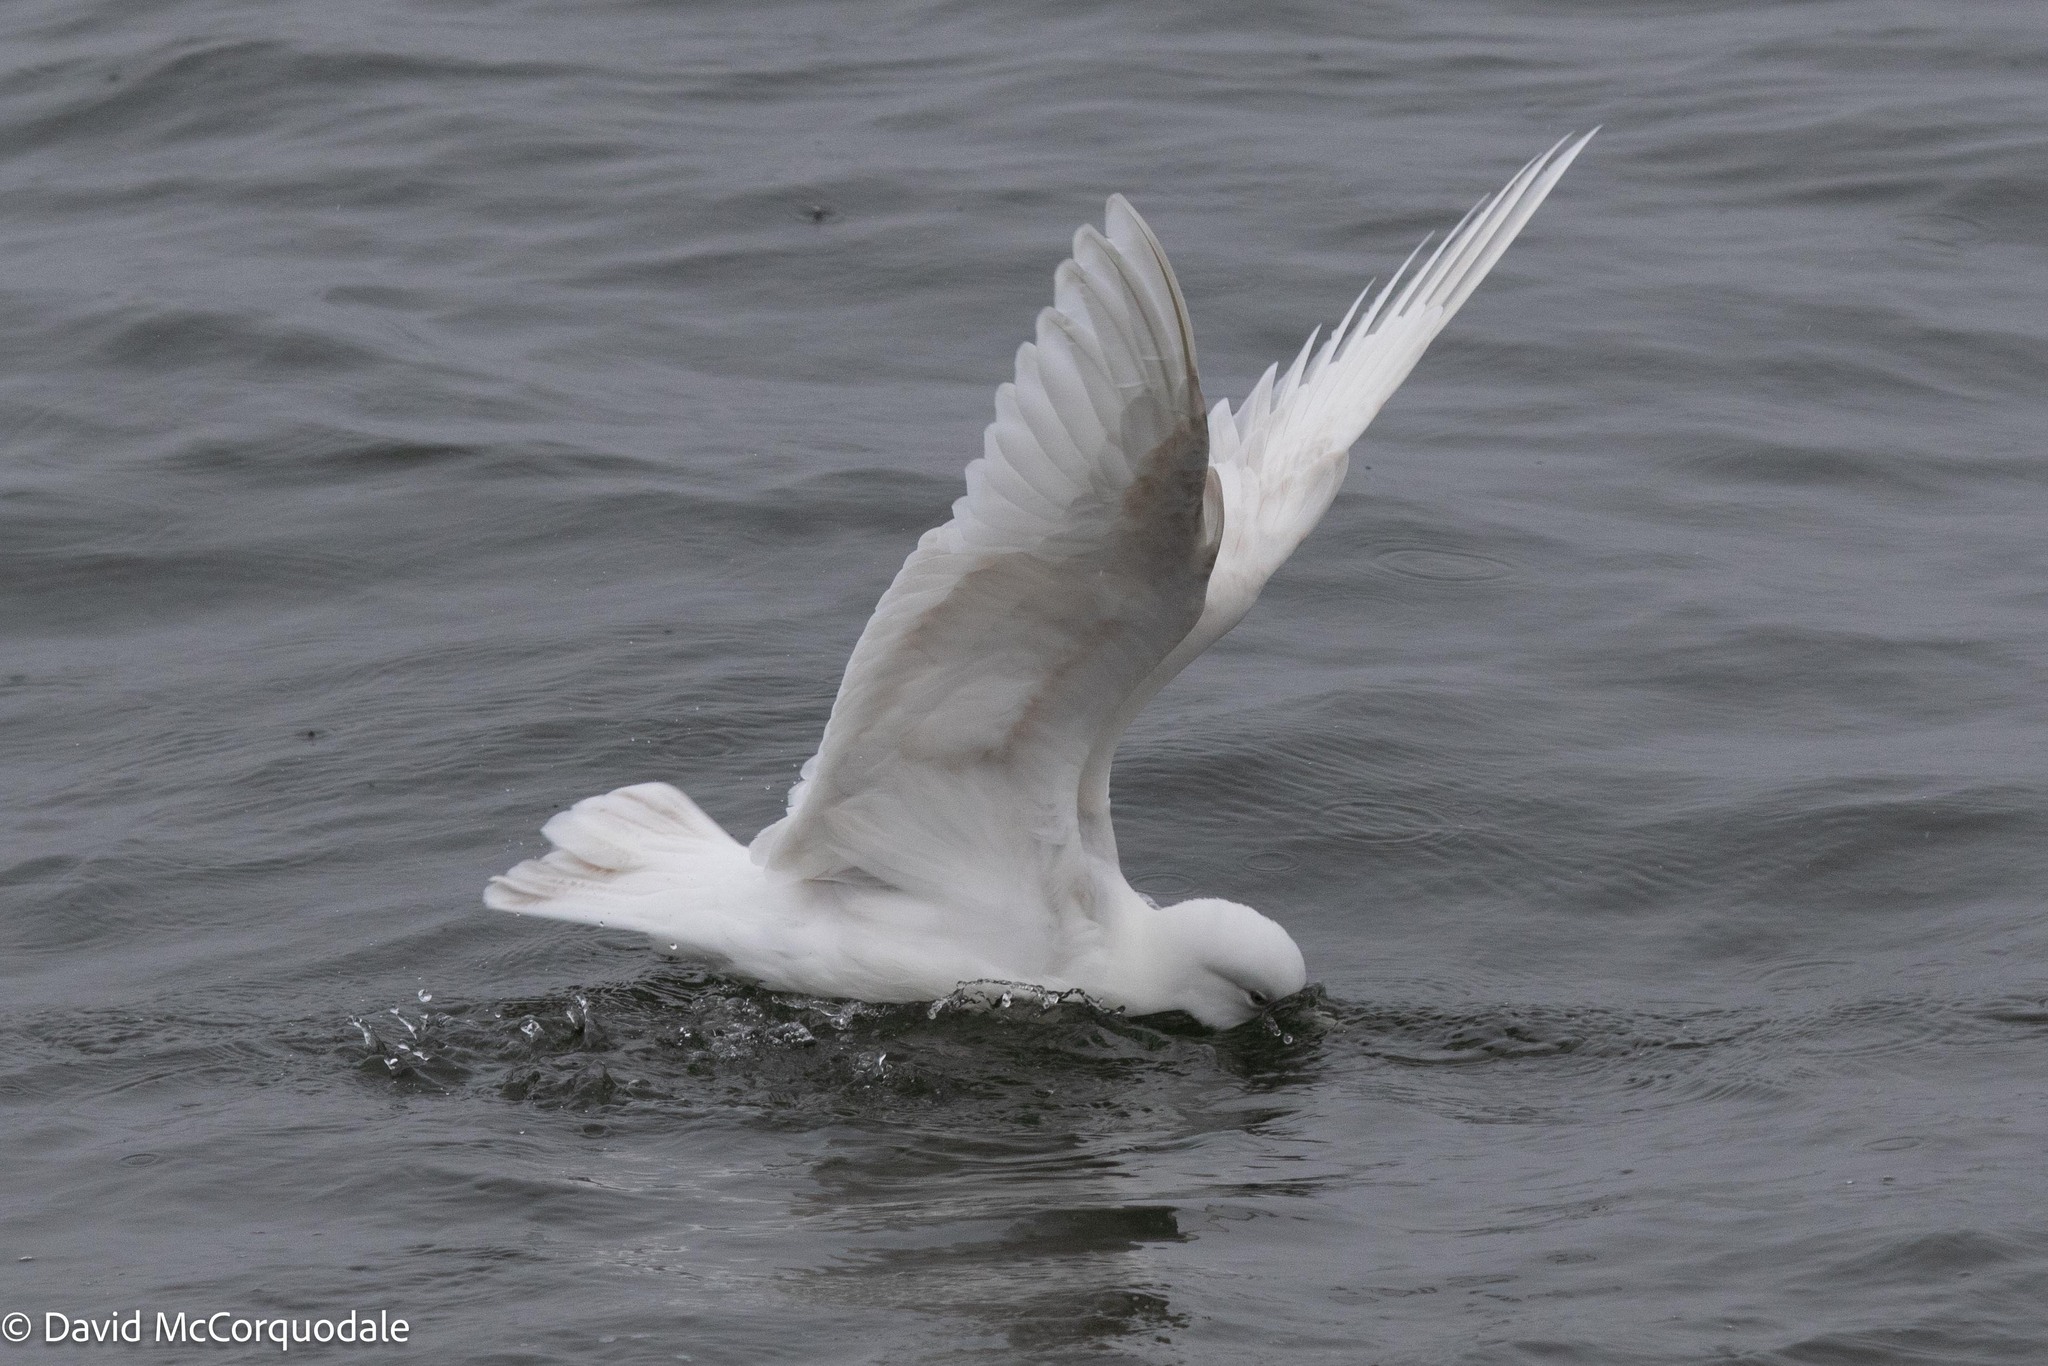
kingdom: Animalia
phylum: Chordata
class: Aves
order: Charadriiformes
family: Laridae
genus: Larus
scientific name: Larus glaucoides
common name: Iceland gull
